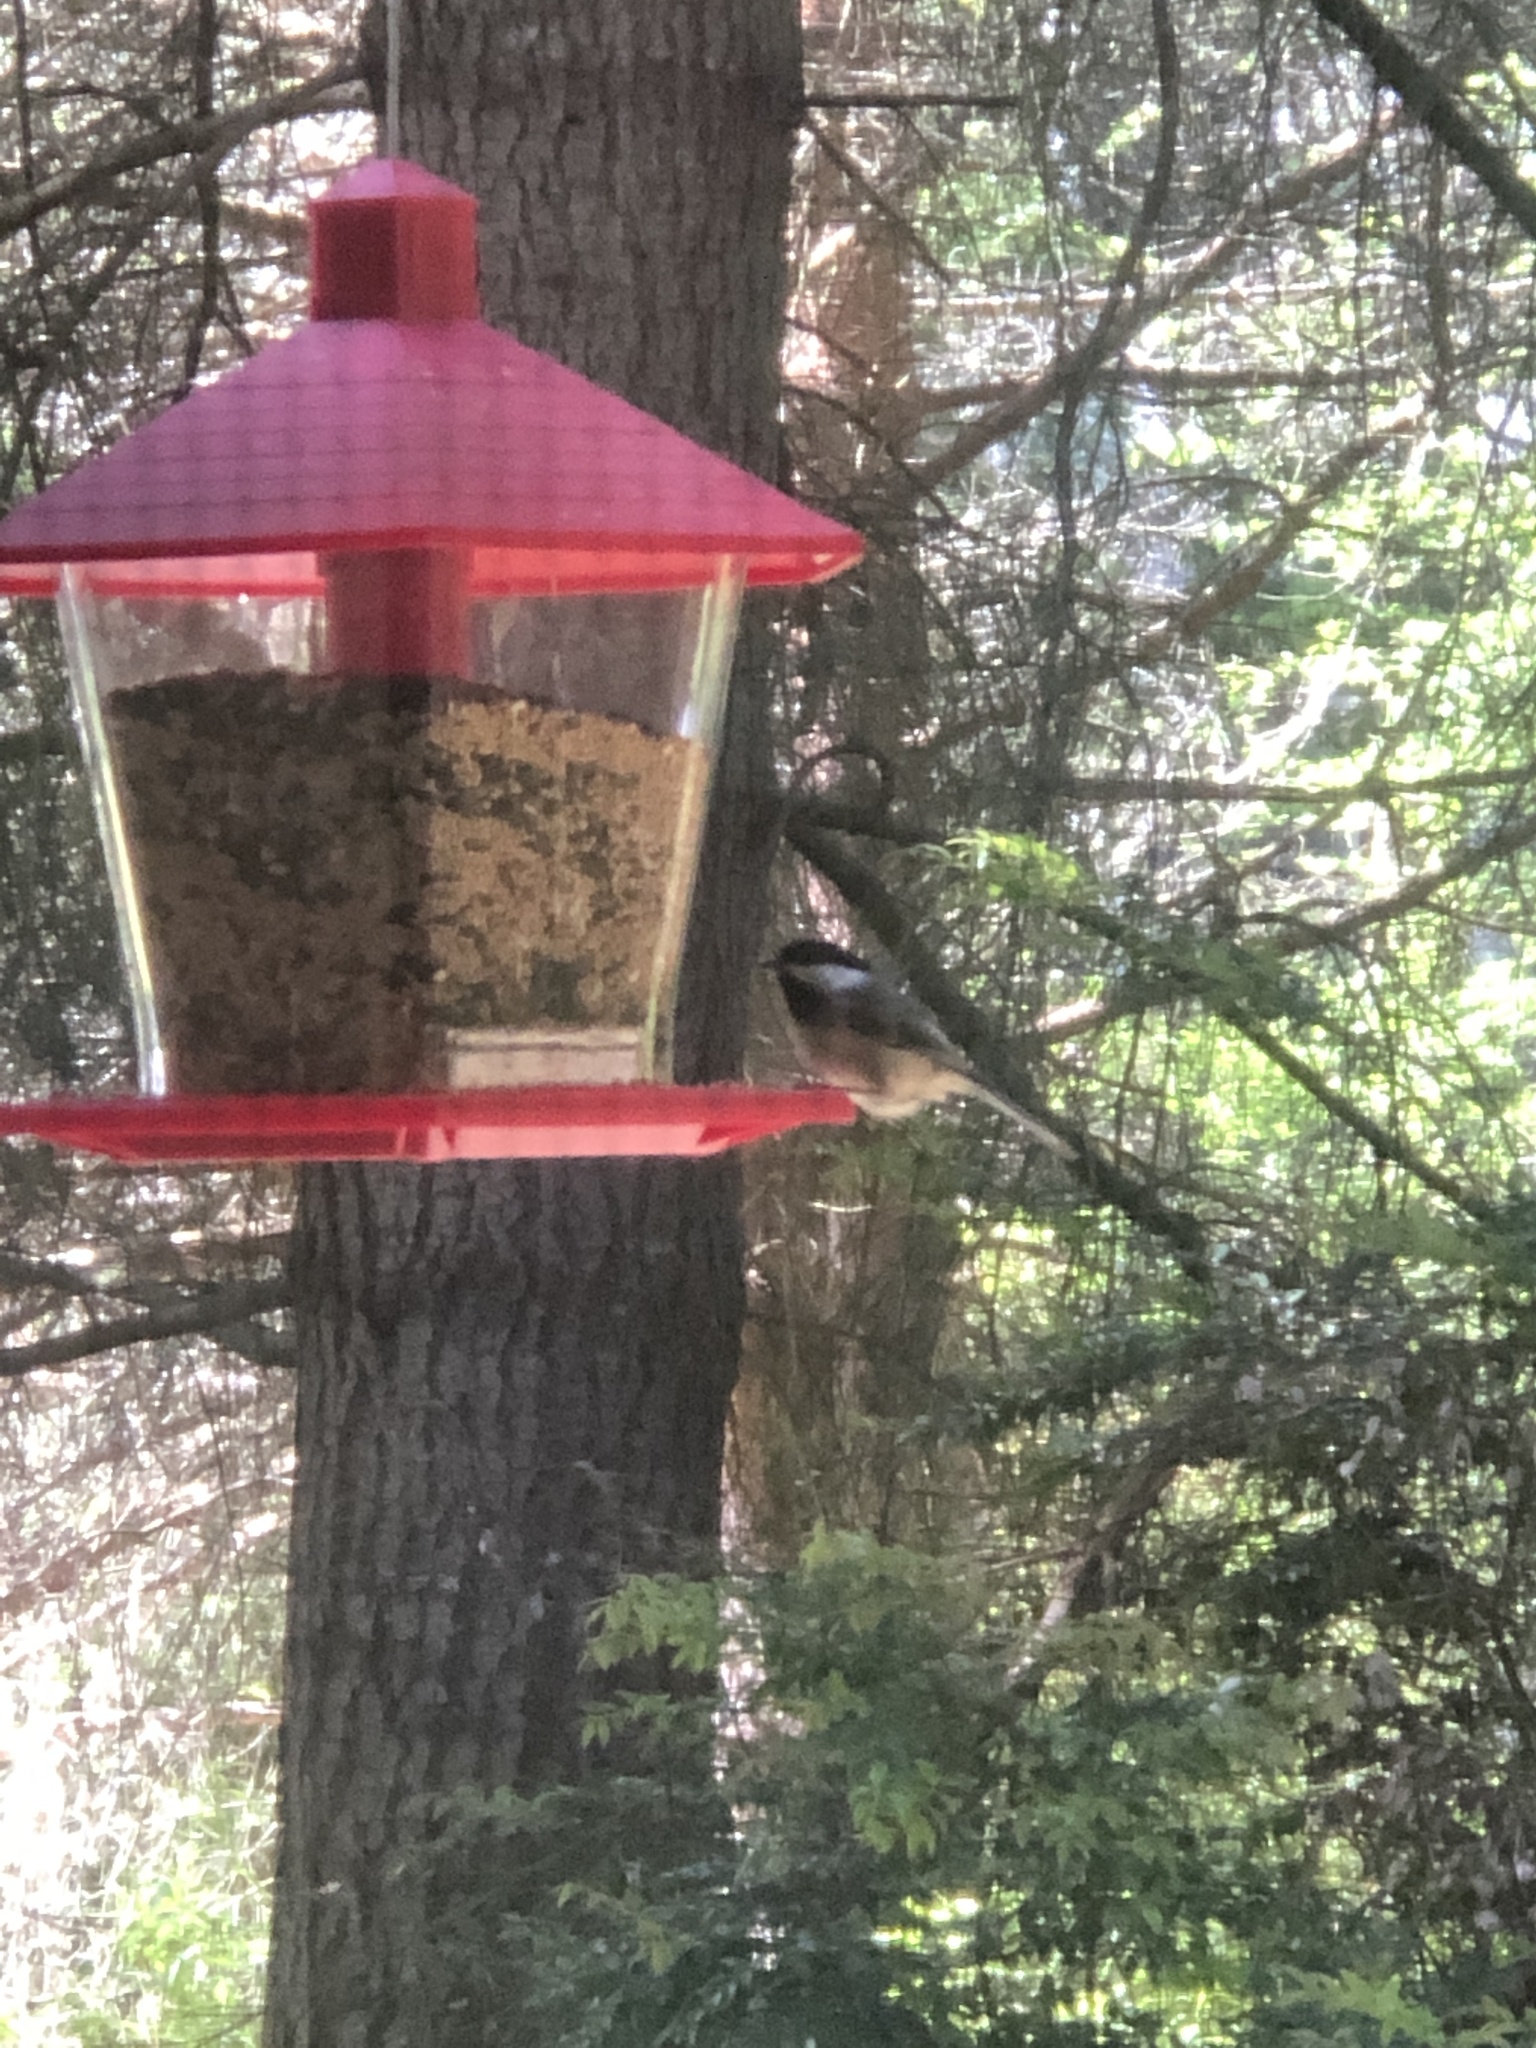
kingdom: Animalia
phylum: Chordata
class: Aves
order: Passeriformes
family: Paridae
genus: Poecile
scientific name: Poecile atricapillus
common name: Black-capped chickadee
